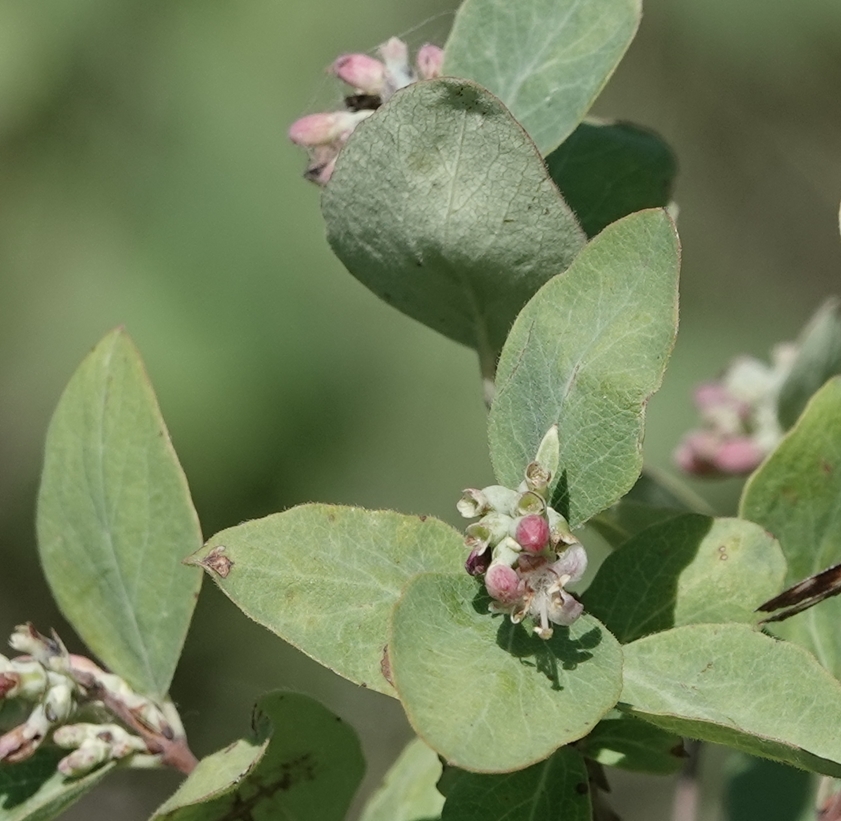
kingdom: Plantae
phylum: Tracheophyta
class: Magnoliopsida
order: Dipsacales
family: Caprifoliaceae
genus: Symphoricarpos
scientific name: Symphoricarpos occidentalis
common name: Wolfberry
